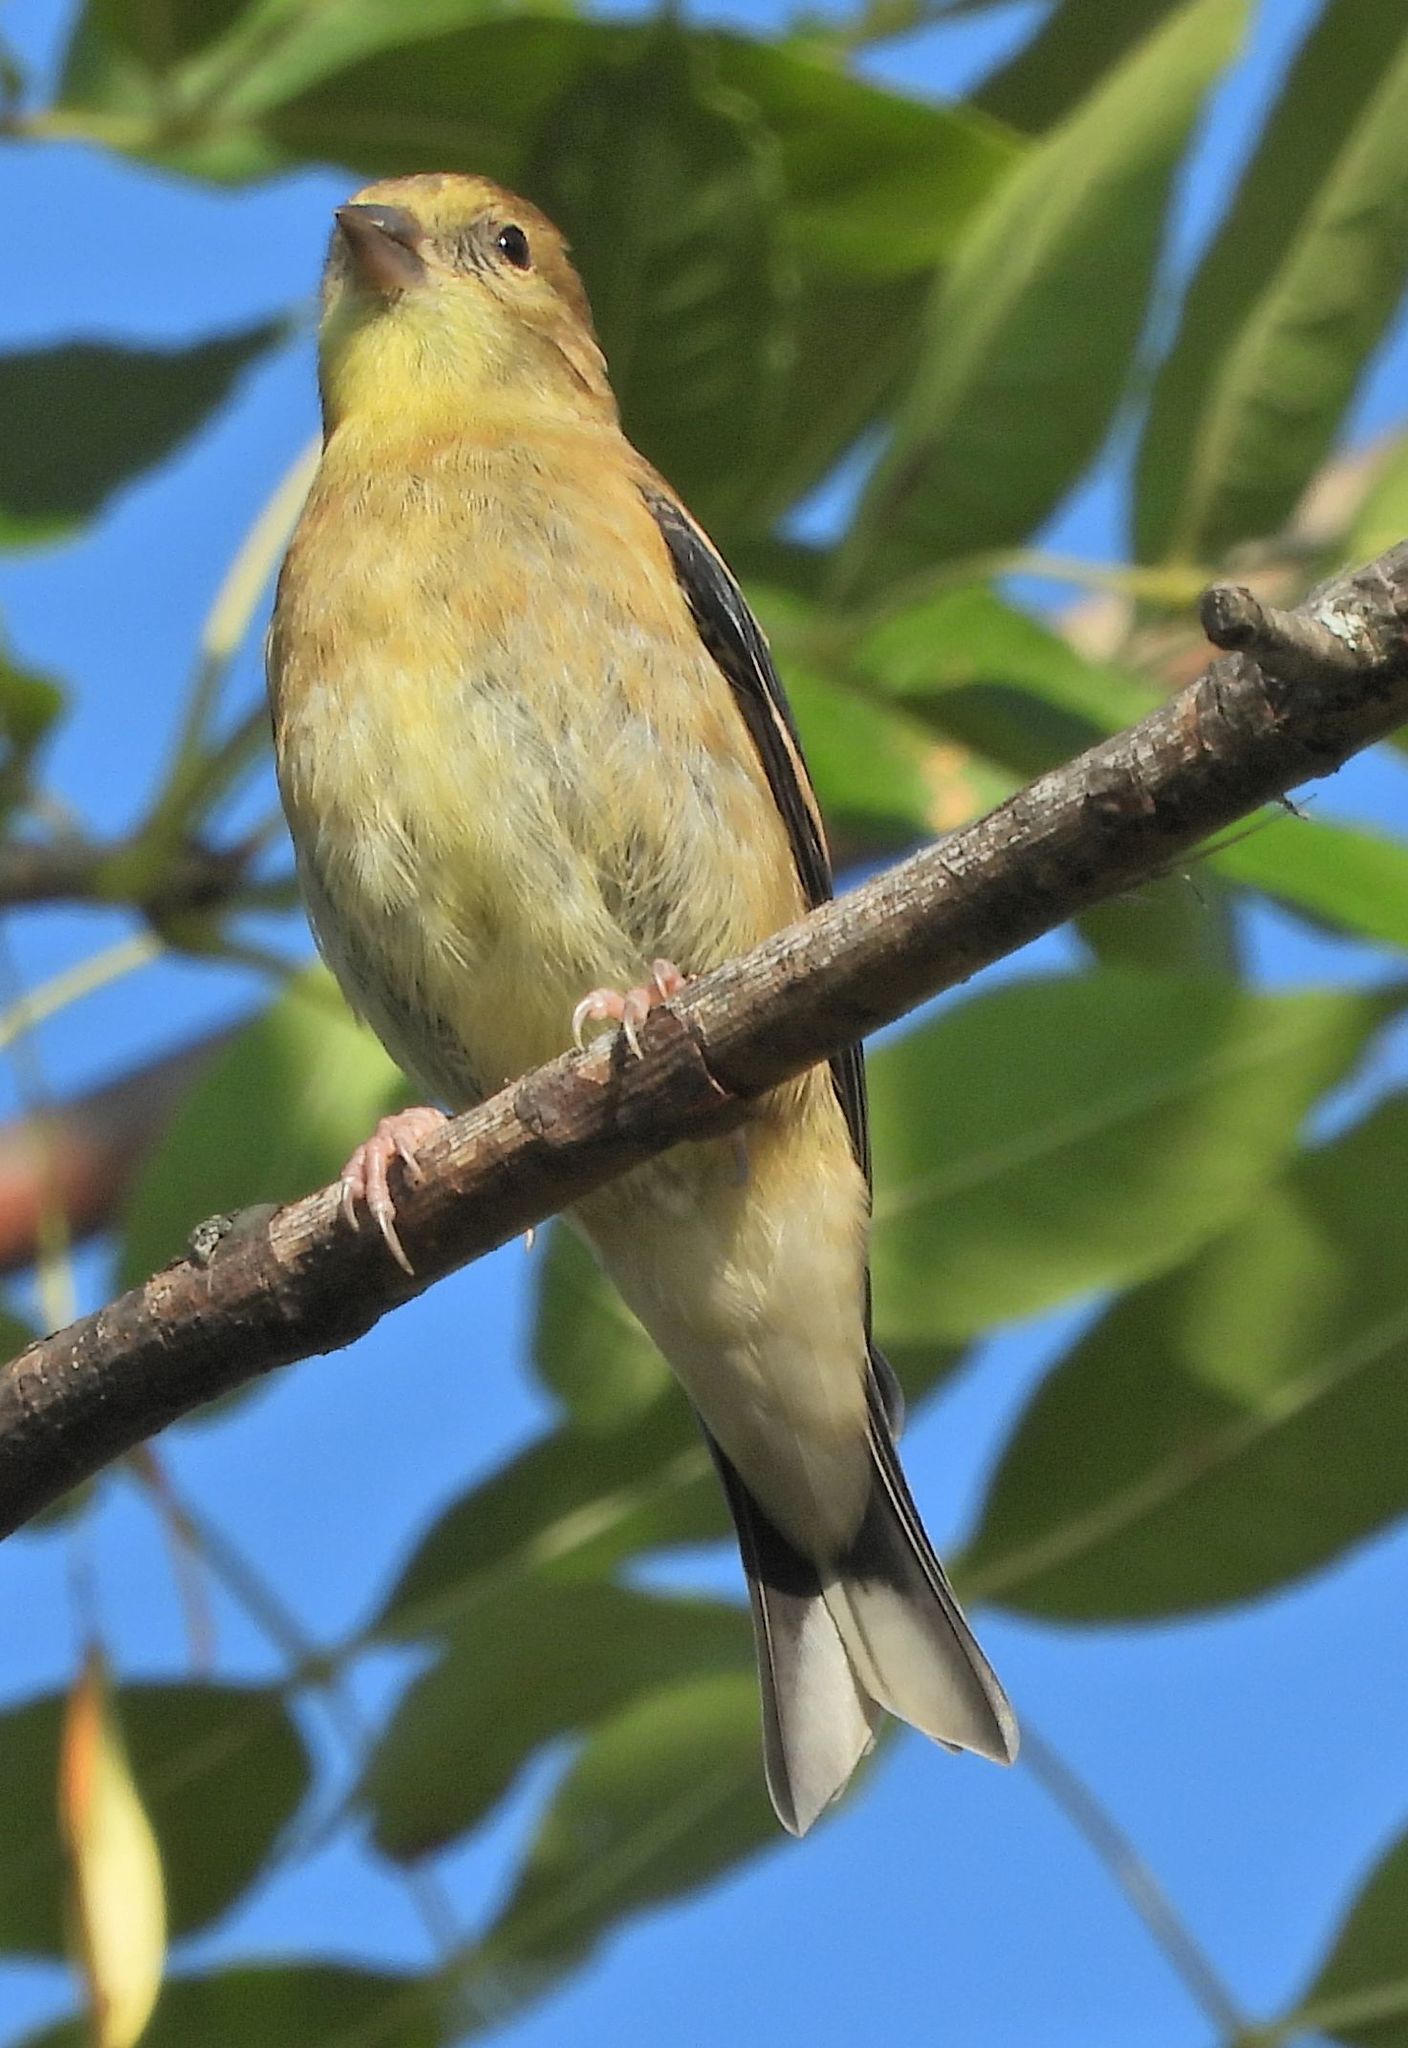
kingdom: Animalia
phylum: Chordata
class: Aves
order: Passeriformes
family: Fringillidae
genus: Spinus
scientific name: Spinus tristis
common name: American goldfinch
